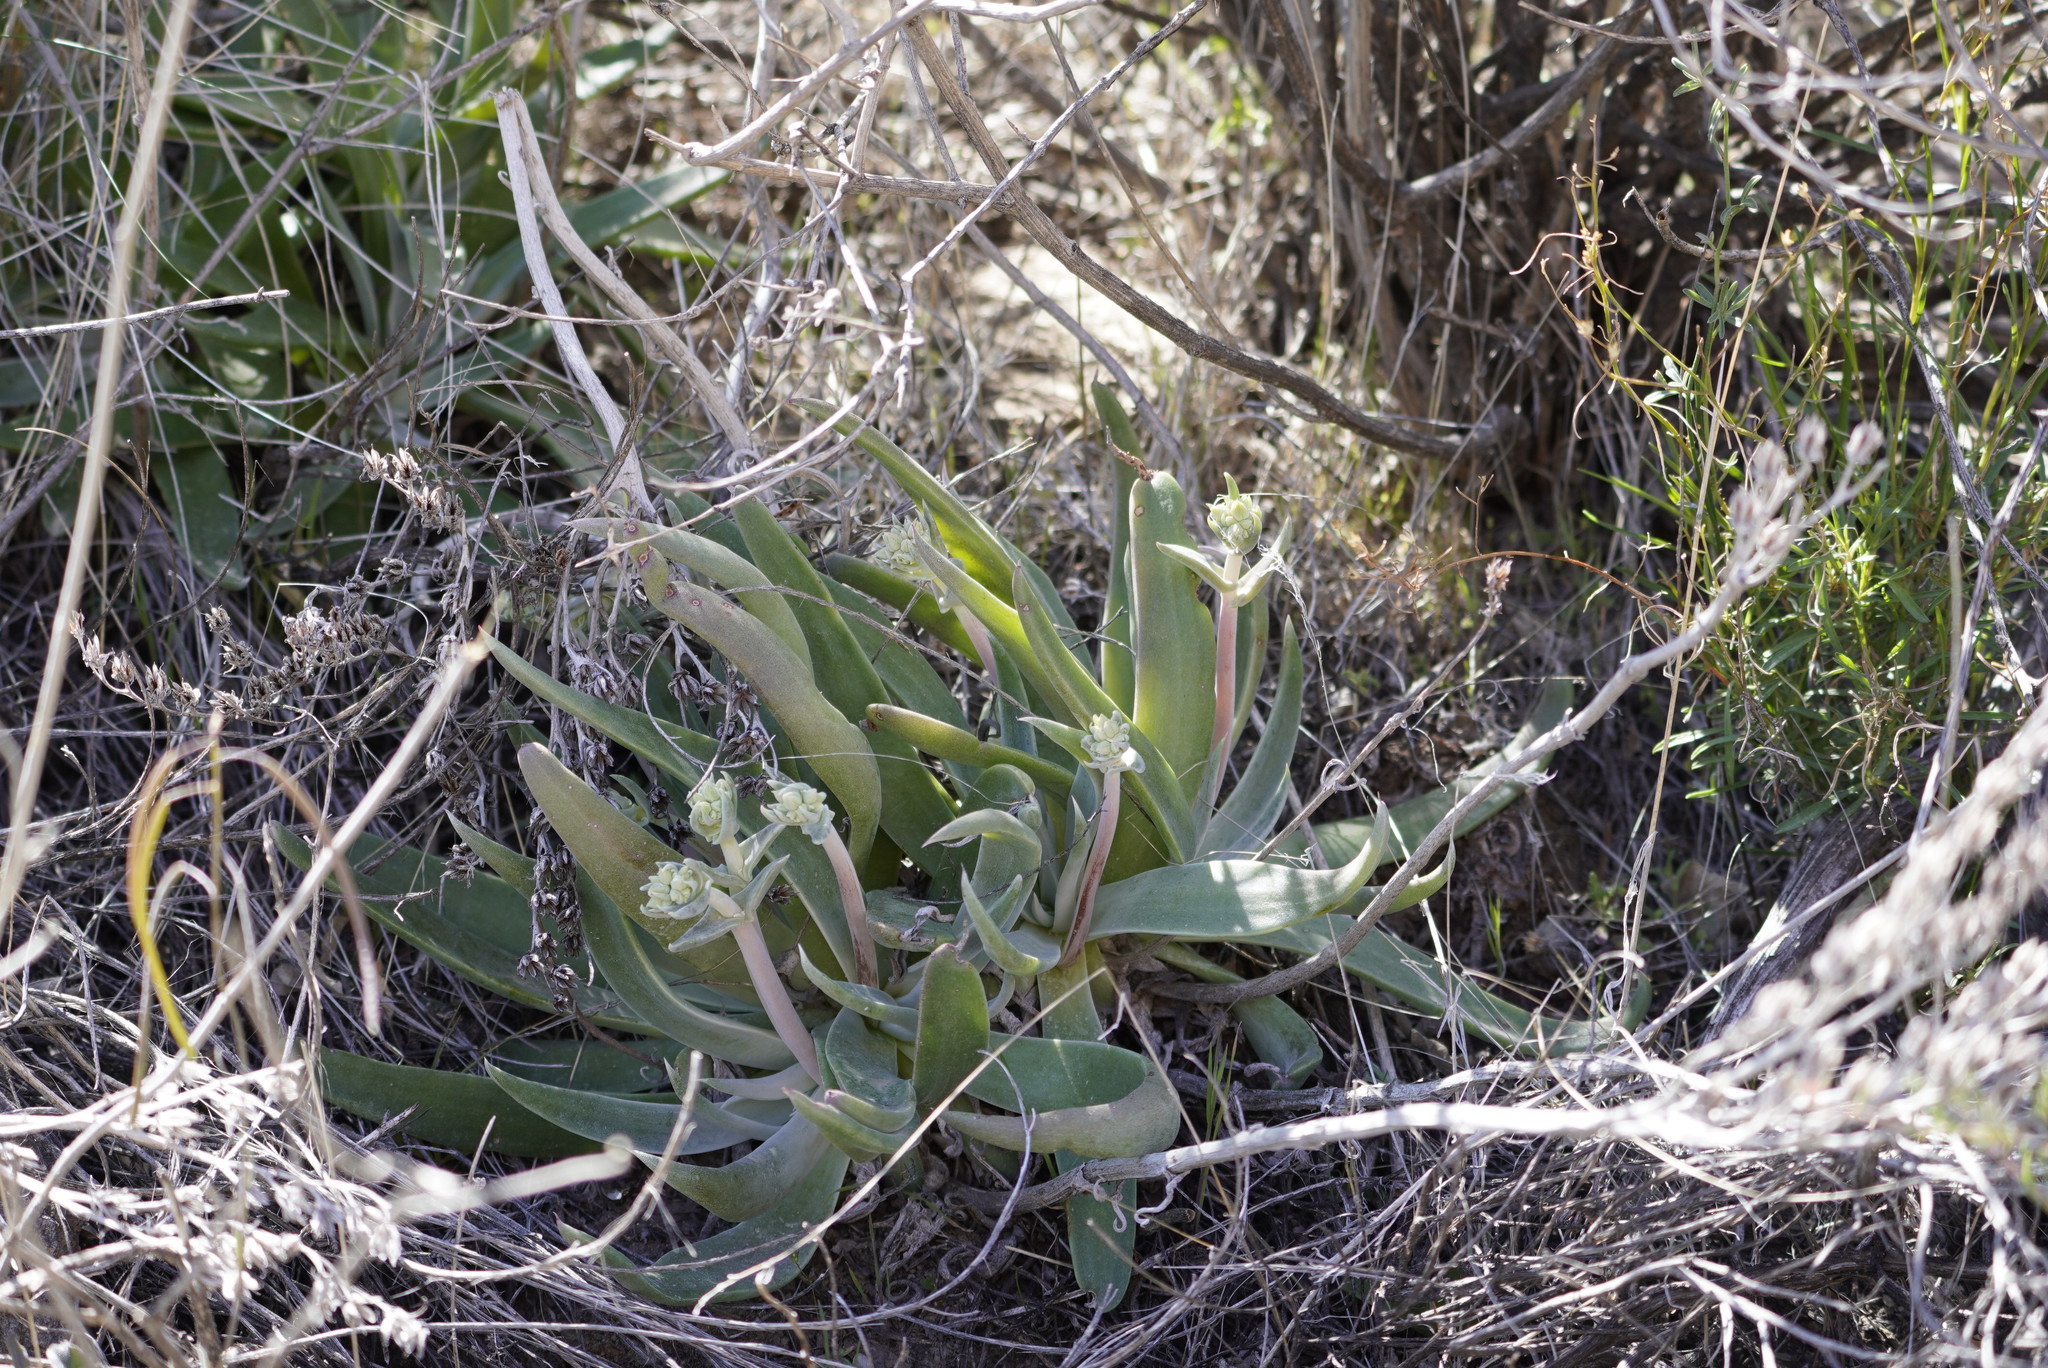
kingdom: Plantae
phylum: Tracheophyta
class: Magnoliopsida
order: Saxifragales
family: Crassulaceae
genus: Dudleya
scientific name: Dudleya collomiae
